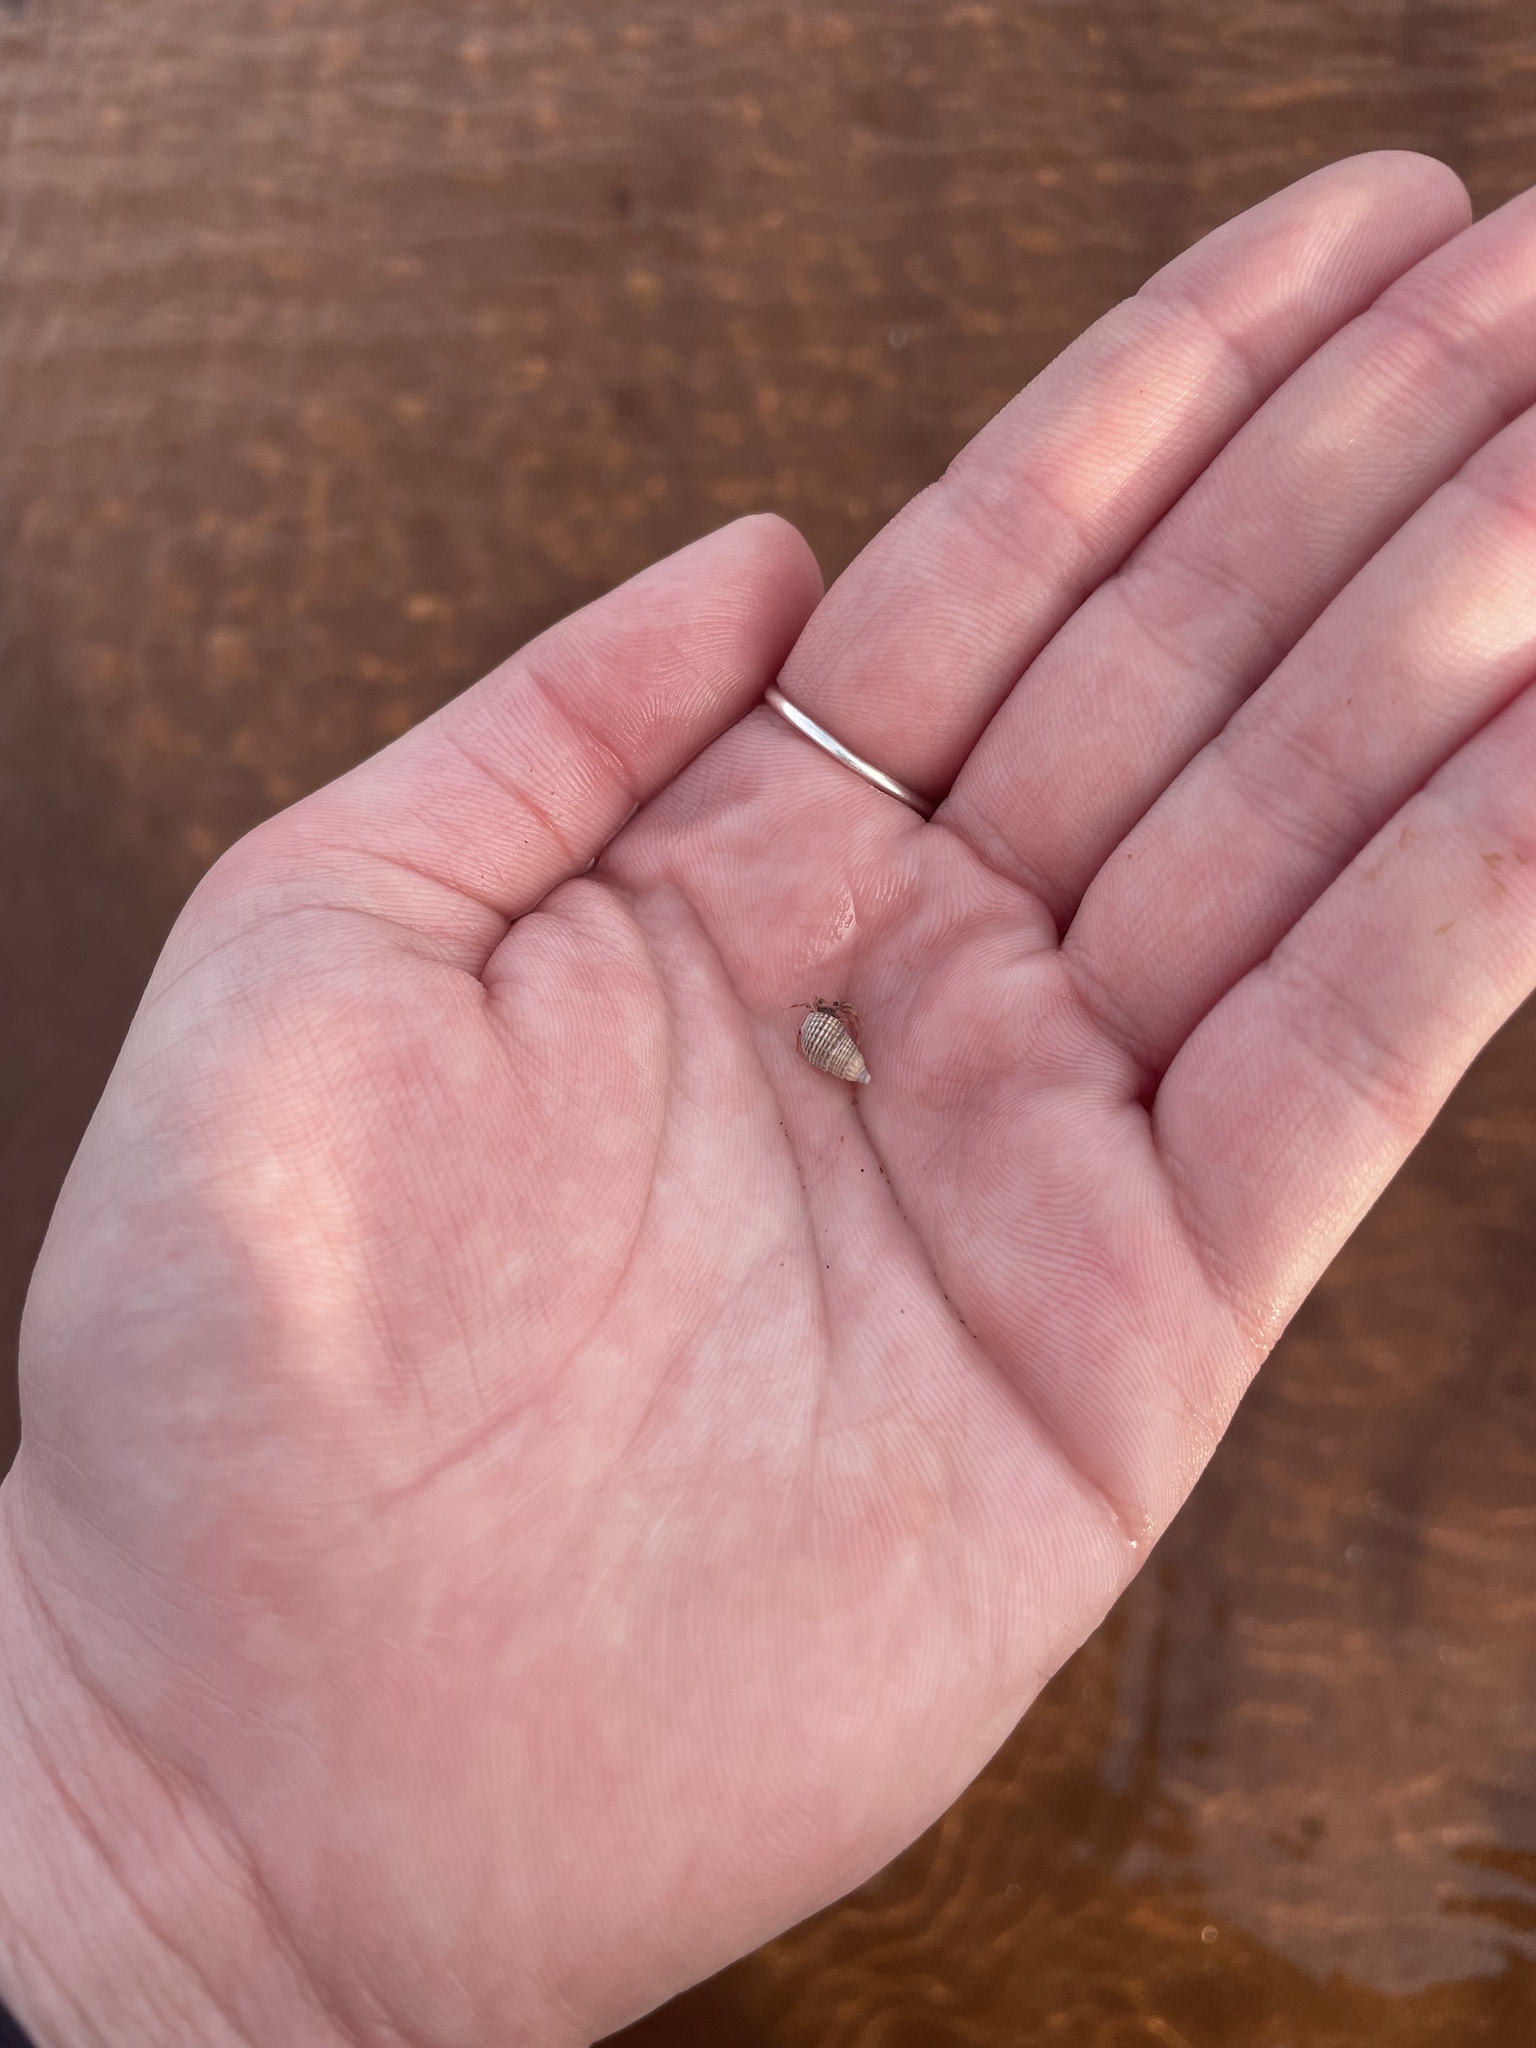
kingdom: Animalia
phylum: Mollusca
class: Gastropoda
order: Neogastropoda
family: Nassariidae
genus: Ilyanassa
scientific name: Ilyanassa trivittata
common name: Three-line mudsnail
